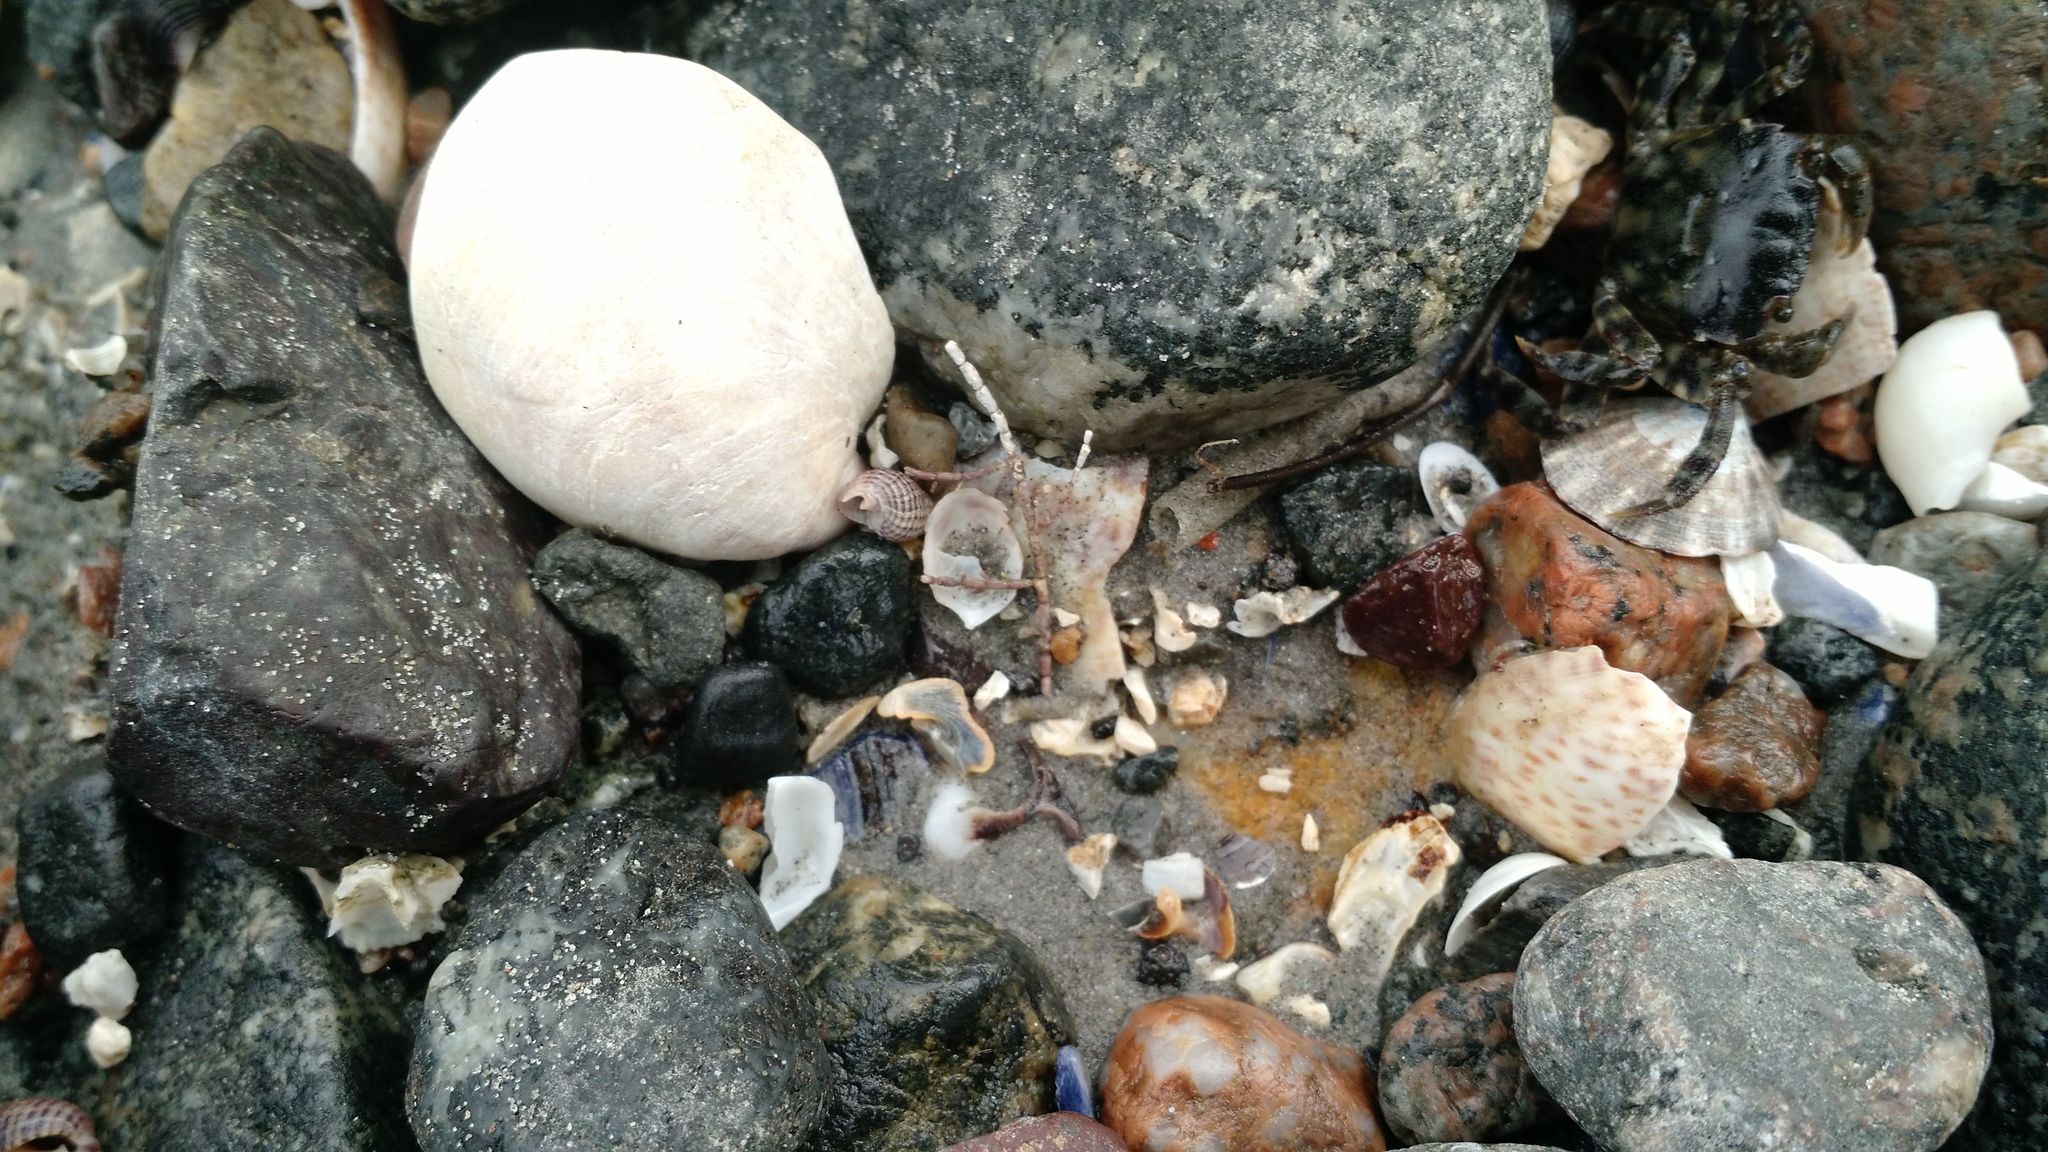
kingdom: Animalia
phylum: Mollusca
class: Gastropoda
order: Neogastropoda
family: Nassariidae
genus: Ilyanassa
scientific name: Ilyanassa trivittata
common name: Three-line mudsnail
